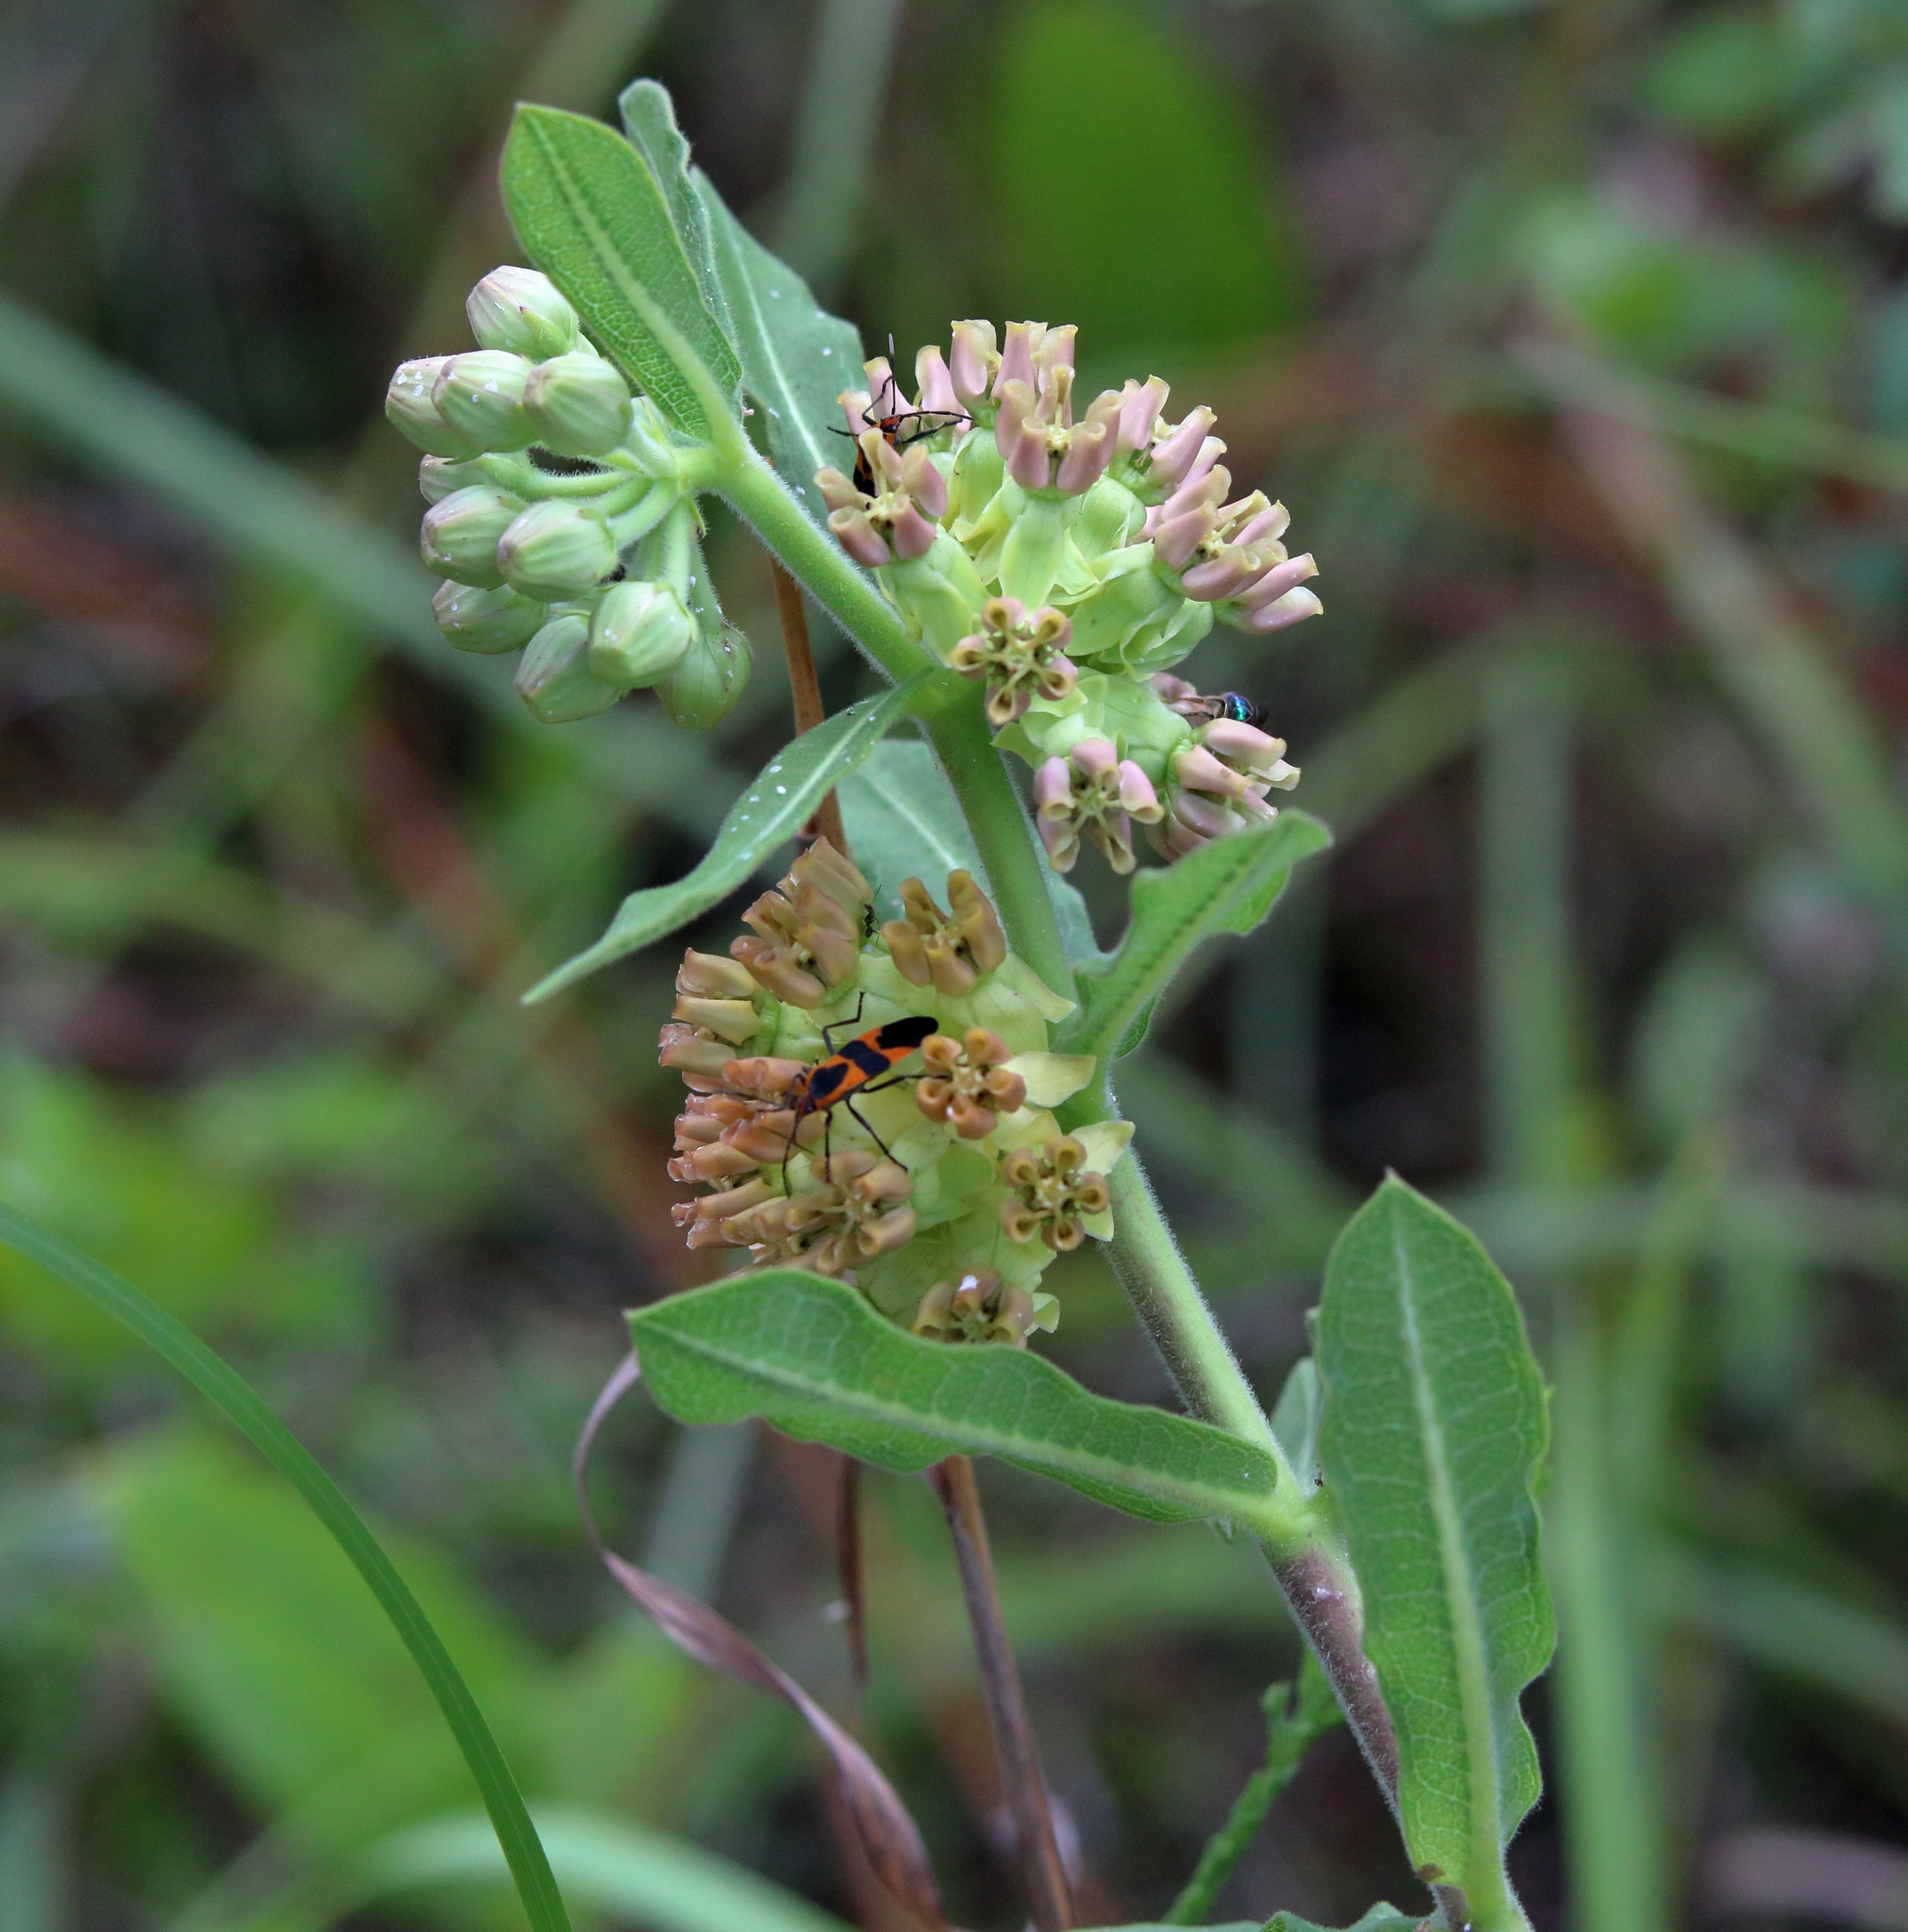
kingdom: Plantae
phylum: Tracheophyta
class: Magnoliopsida
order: Gentianales
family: Apocynaceae
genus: Asclepias
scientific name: Asclepias obovata
